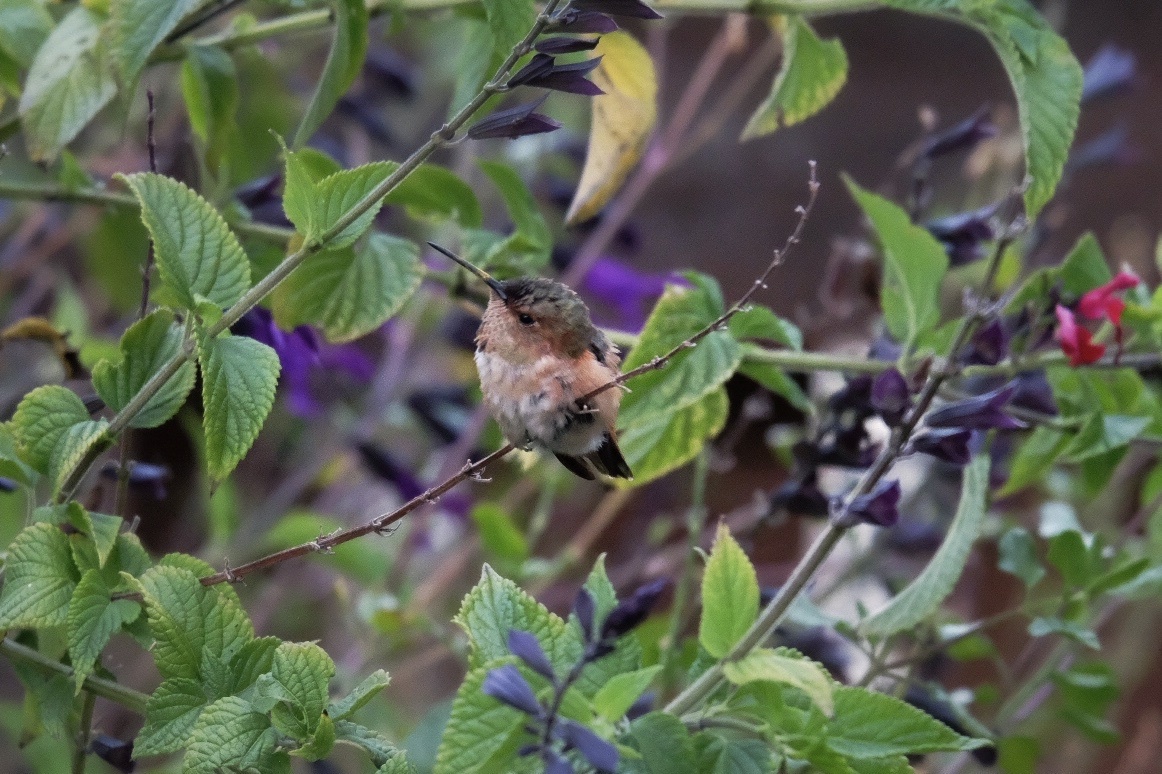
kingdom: Animalia
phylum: Chordata
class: Aves
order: Apodiformes
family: Trochilidae
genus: Selasphorus
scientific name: Selasphorus
